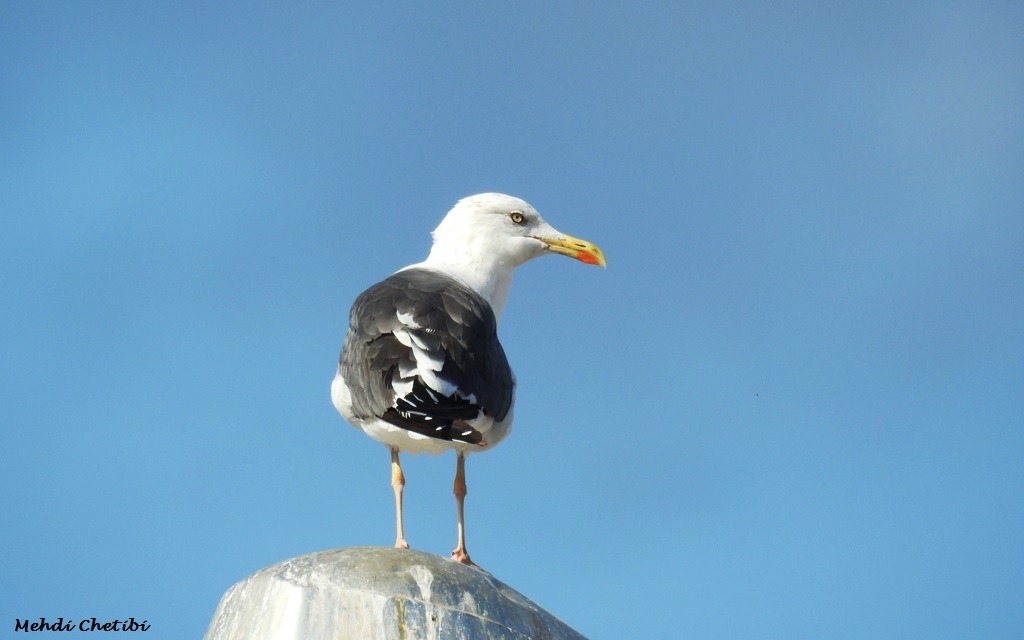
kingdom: Animalia
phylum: Chordata
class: Aves
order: Charadriiformes
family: Laridae
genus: Larus
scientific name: Larus fuscus
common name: Lesser black-backed gull
